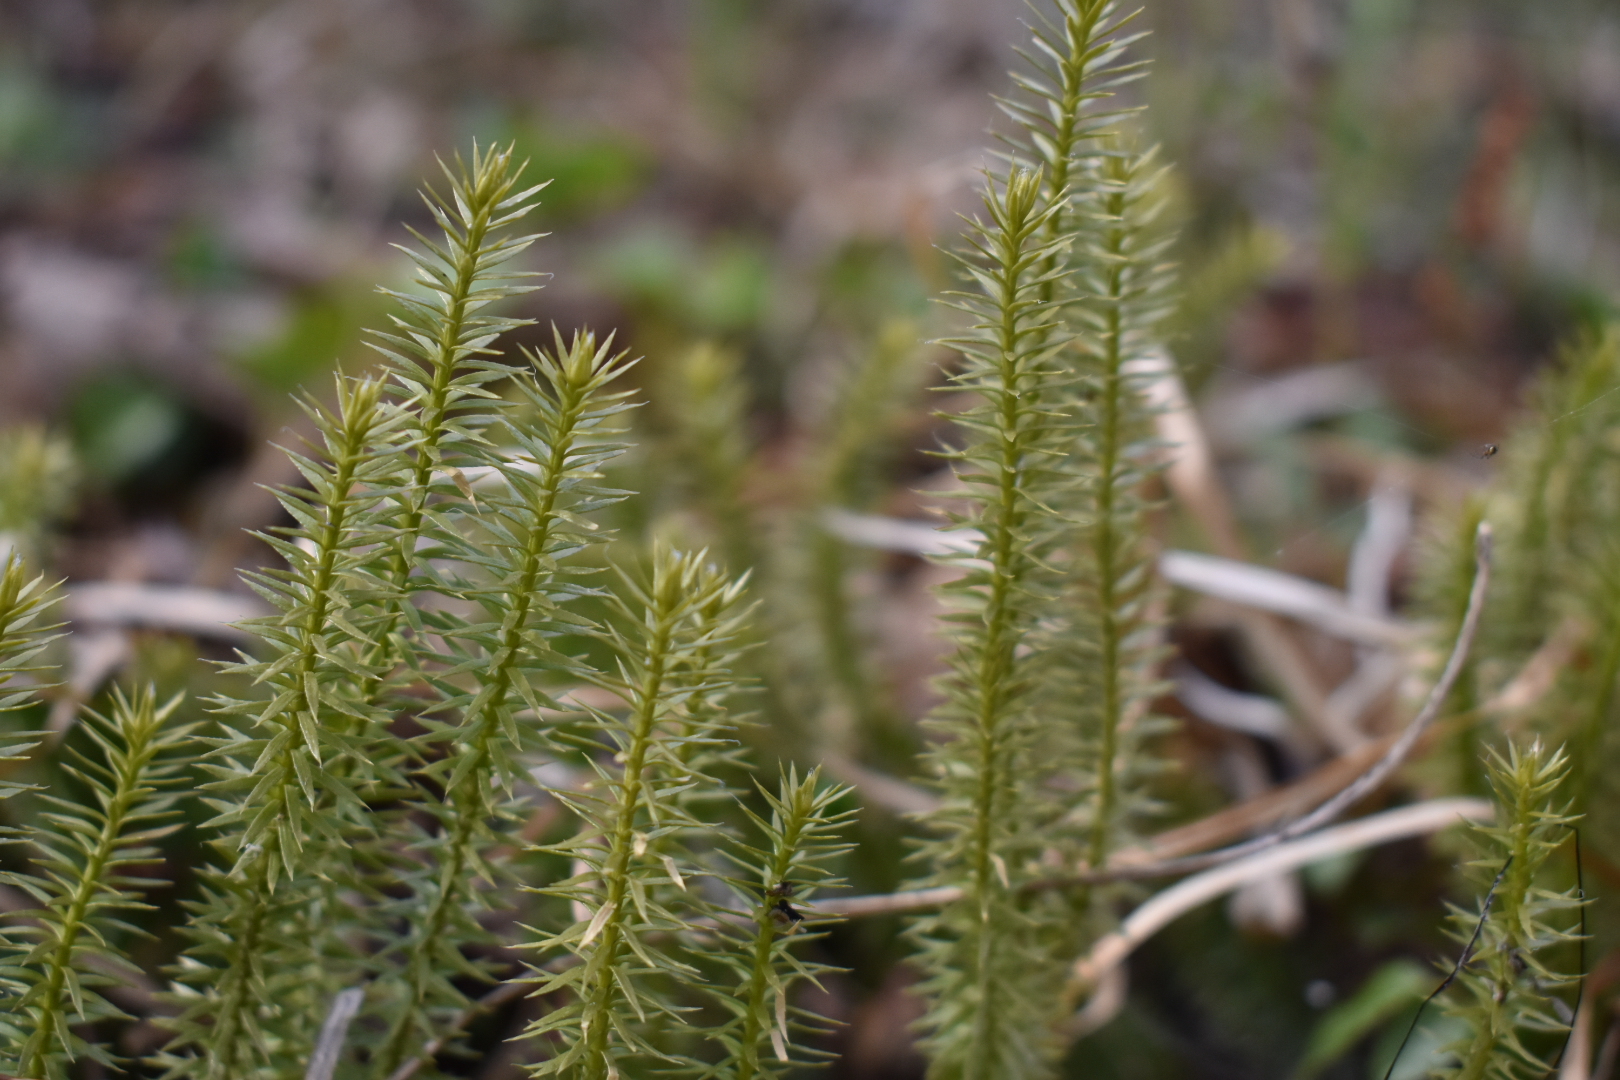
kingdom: Plantae
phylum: Tracheophyta
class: Lycopodiopsida
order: Lycopodiales
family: Lycopodiaceae
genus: Spinulum
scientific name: Spinulum annotinum
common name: Interrupted club-moss
